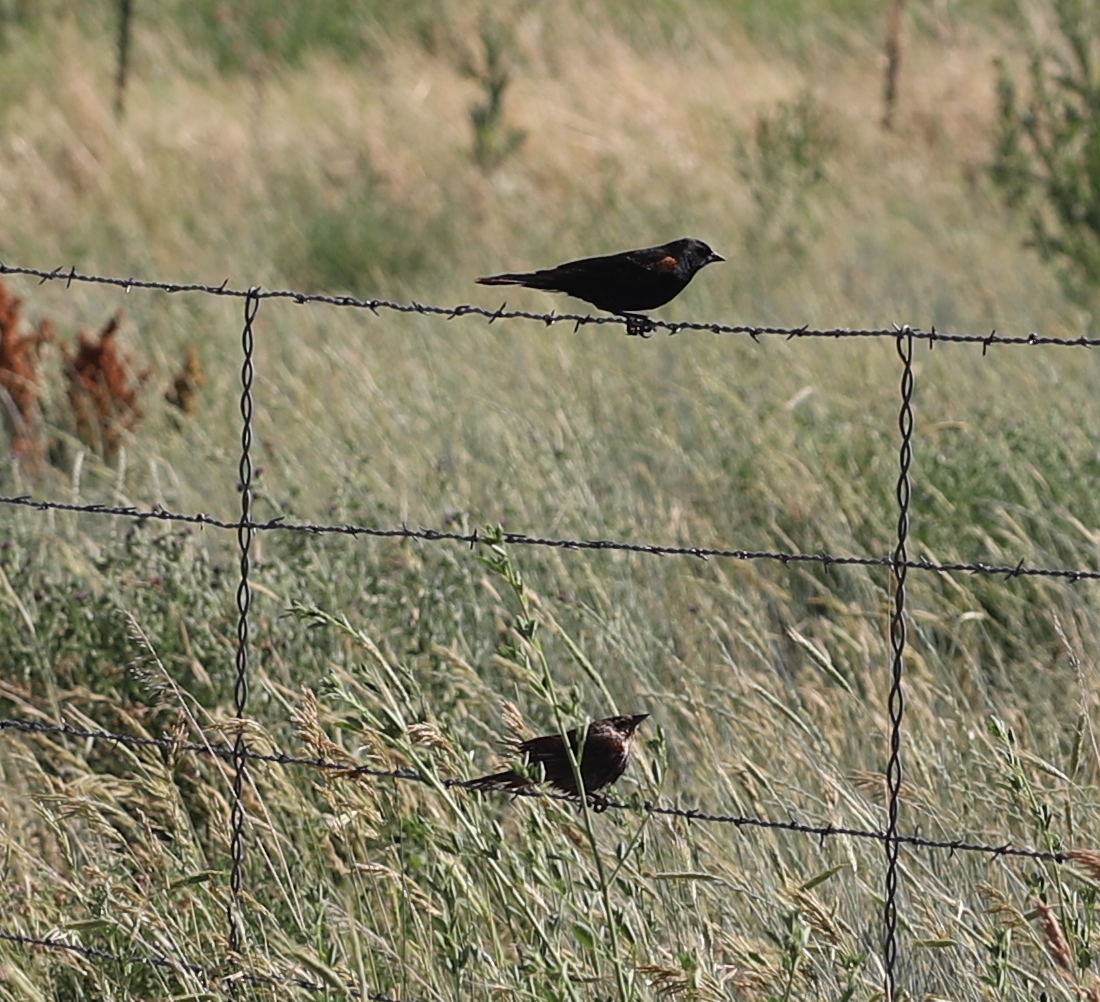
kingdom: Animalia
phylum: Chordata
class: Aves
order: Passeriformes
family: Icteridae
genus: Agelaius
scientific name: Agelaius phoeniceus
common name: Red-winged blackbird
